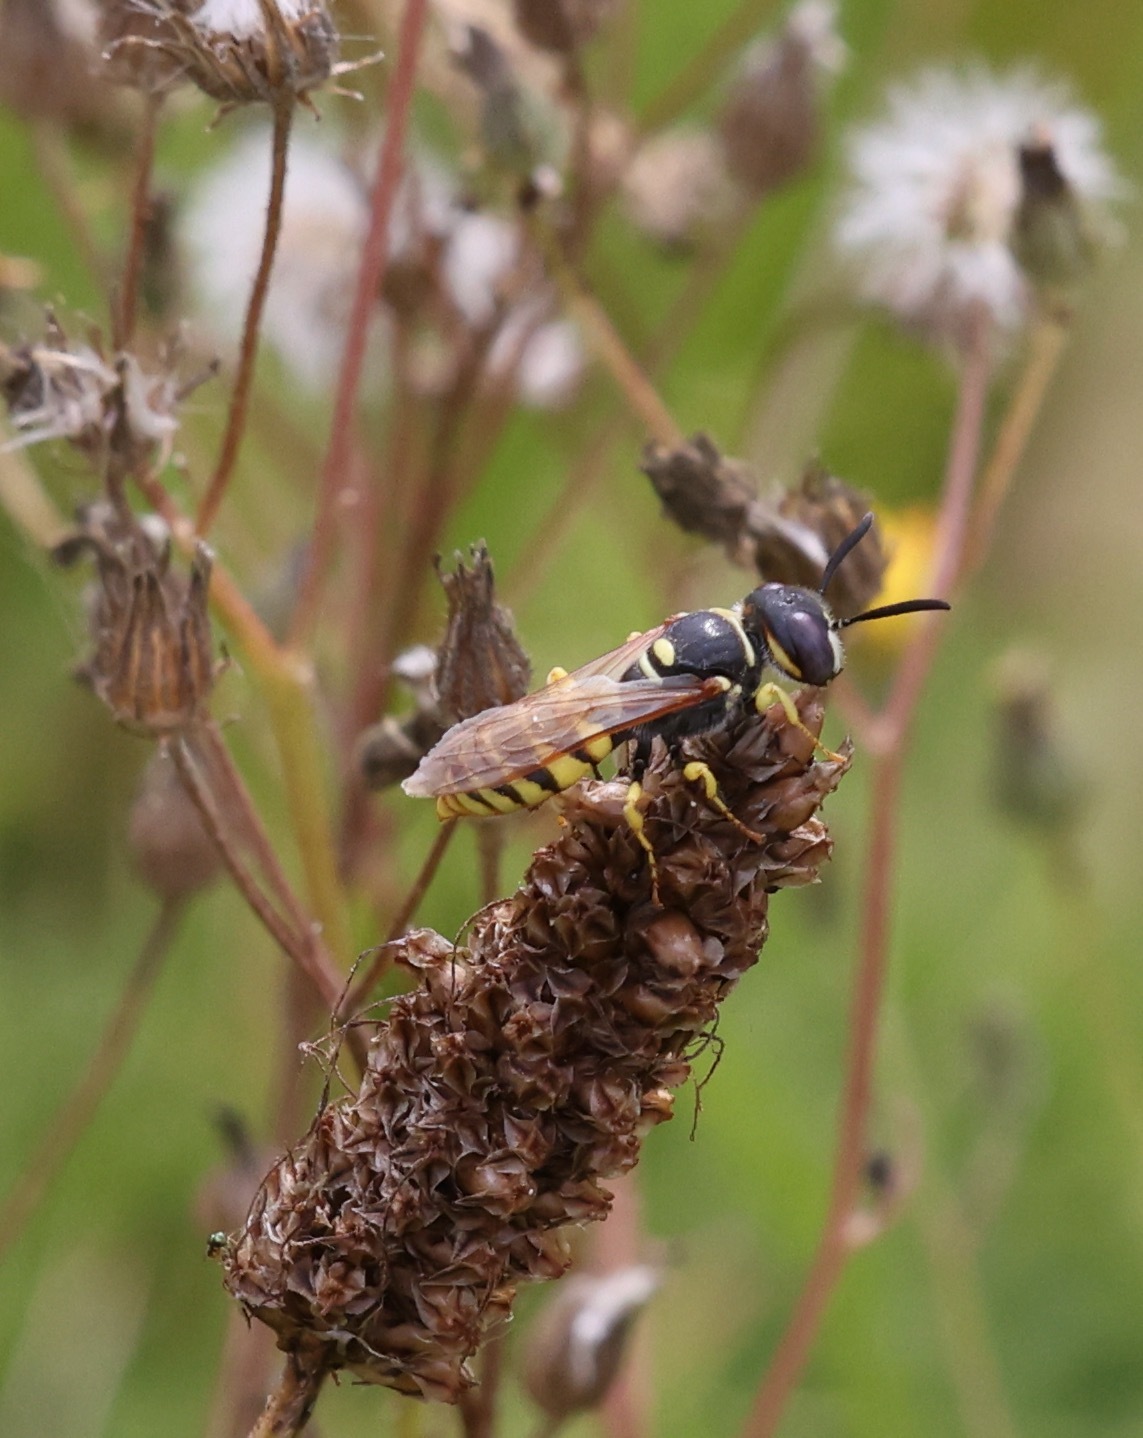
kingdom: Animalia
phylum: Arthropoda
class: Insecta
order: Hymenoptera
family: Crabronidae
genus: Philanthus
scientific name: Philanthus triangulum
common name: Bee wolf
